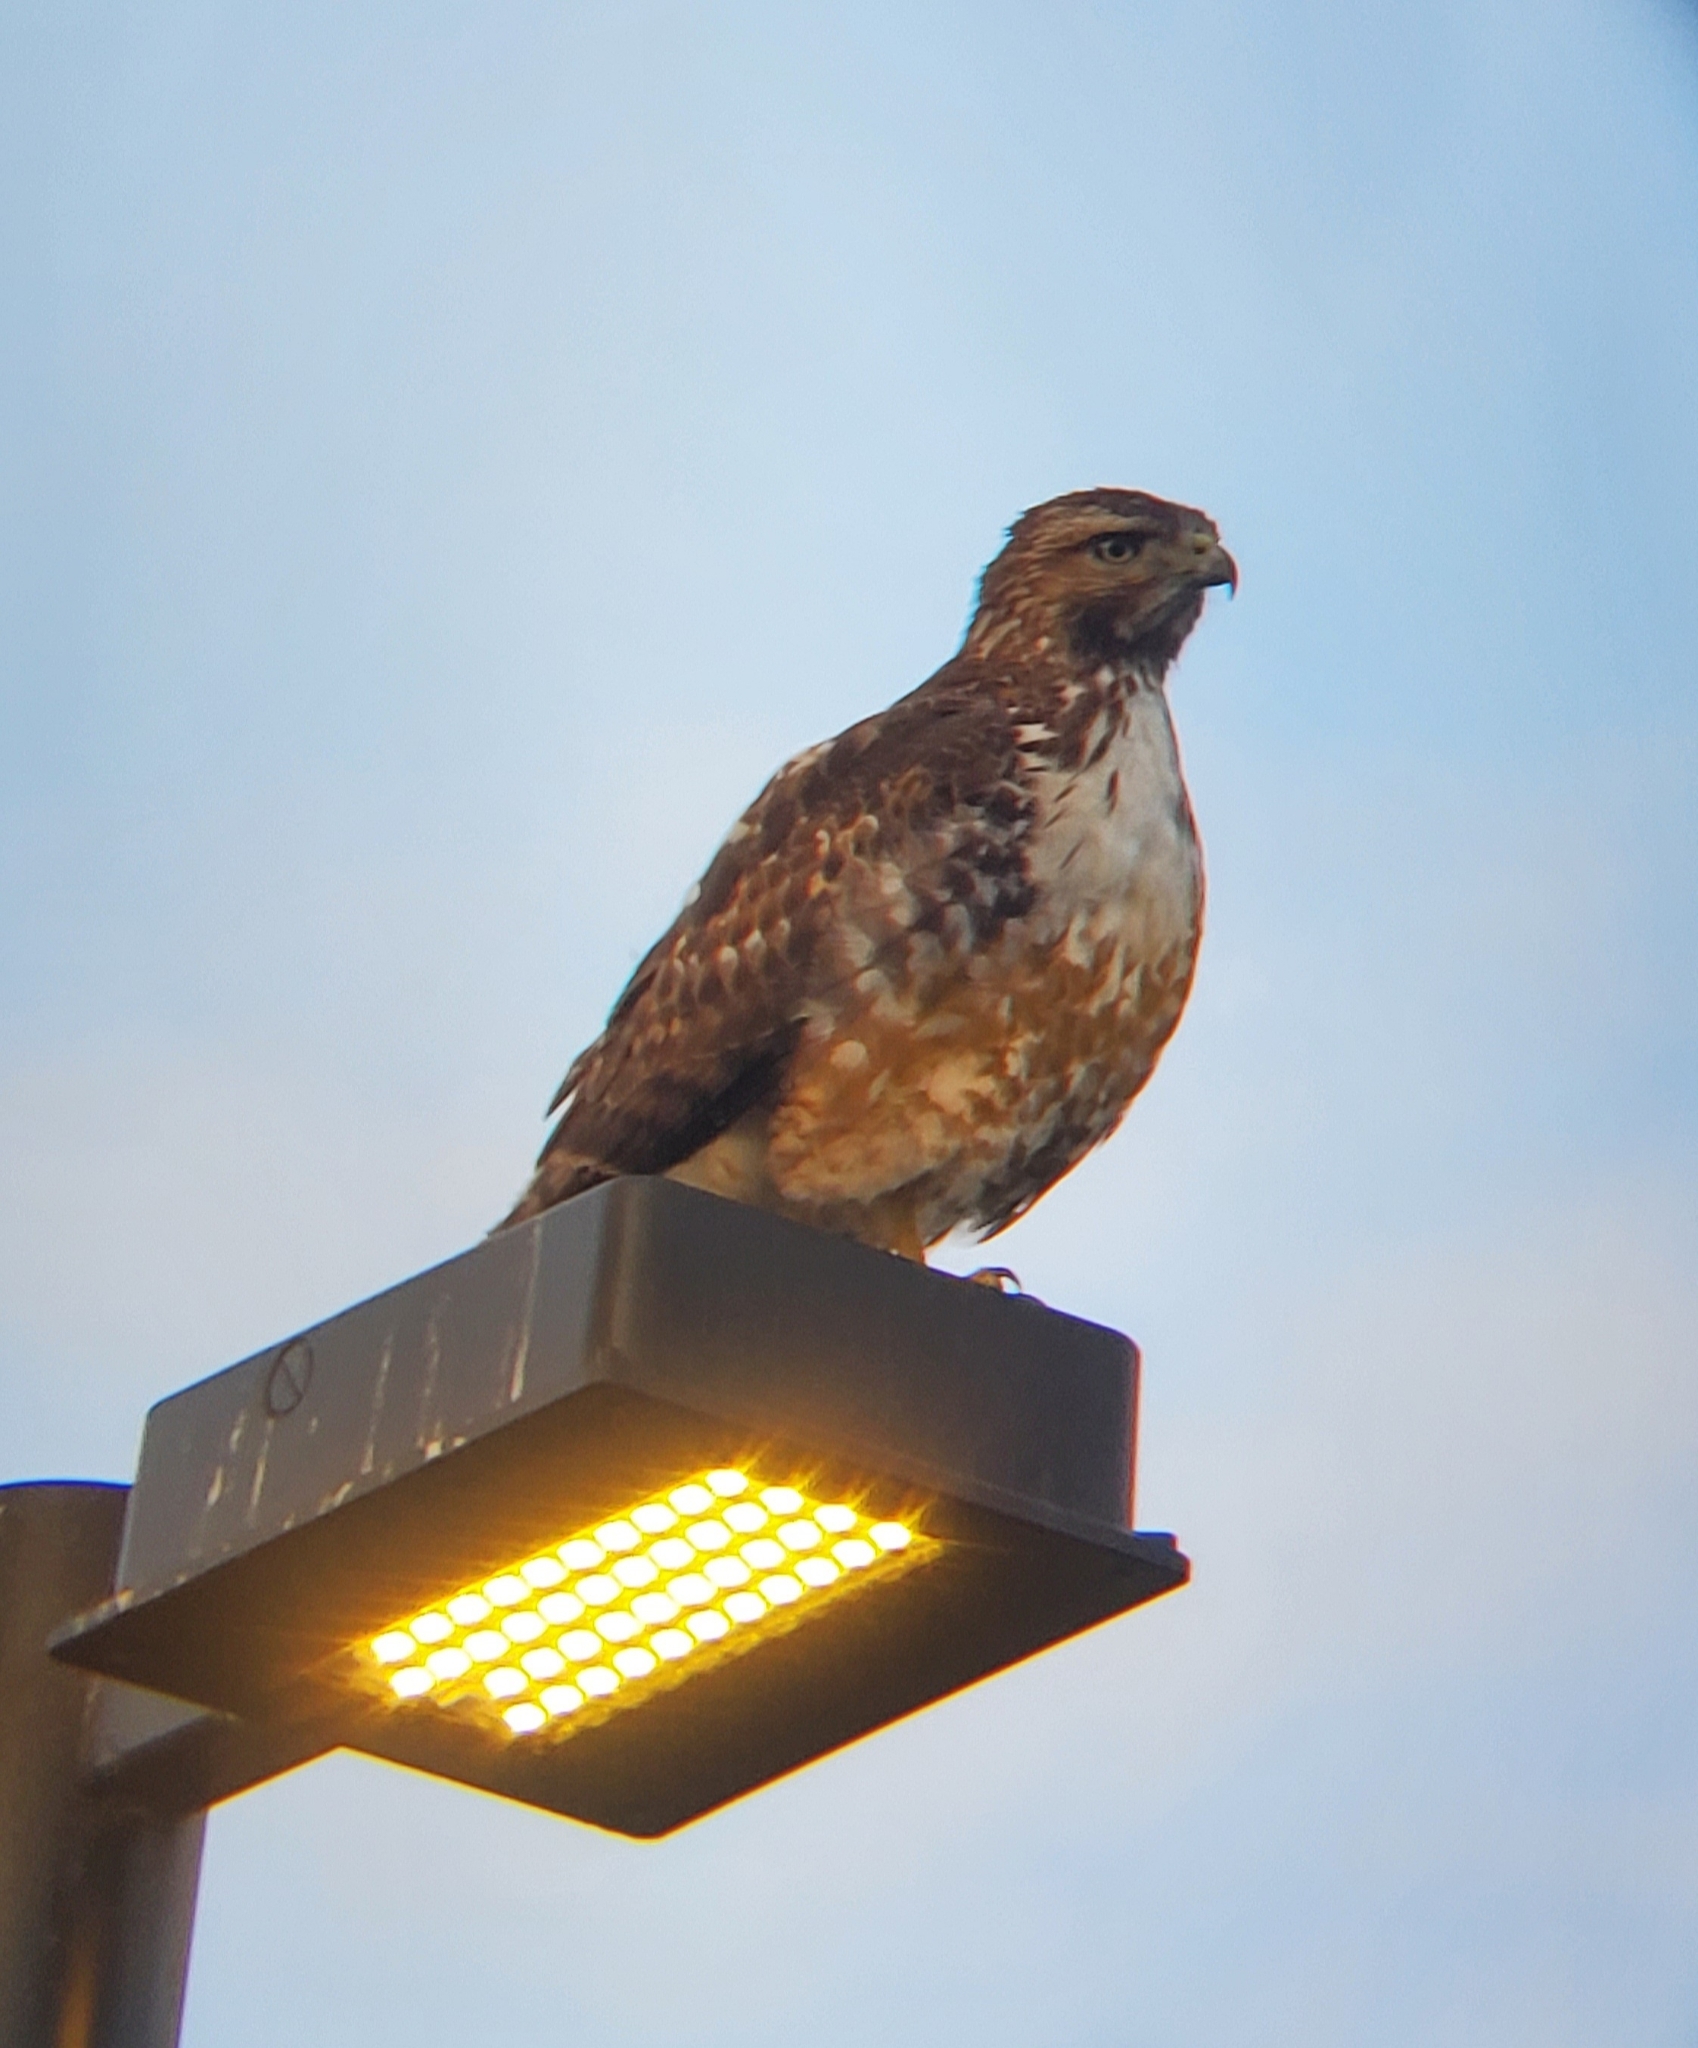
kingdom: Animalia
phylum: Chordata
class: Aves
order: Accipitriformes
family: Accipitridae
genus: Buteo
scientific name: Buteo jamaicensis
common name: Red-tailed hawk
